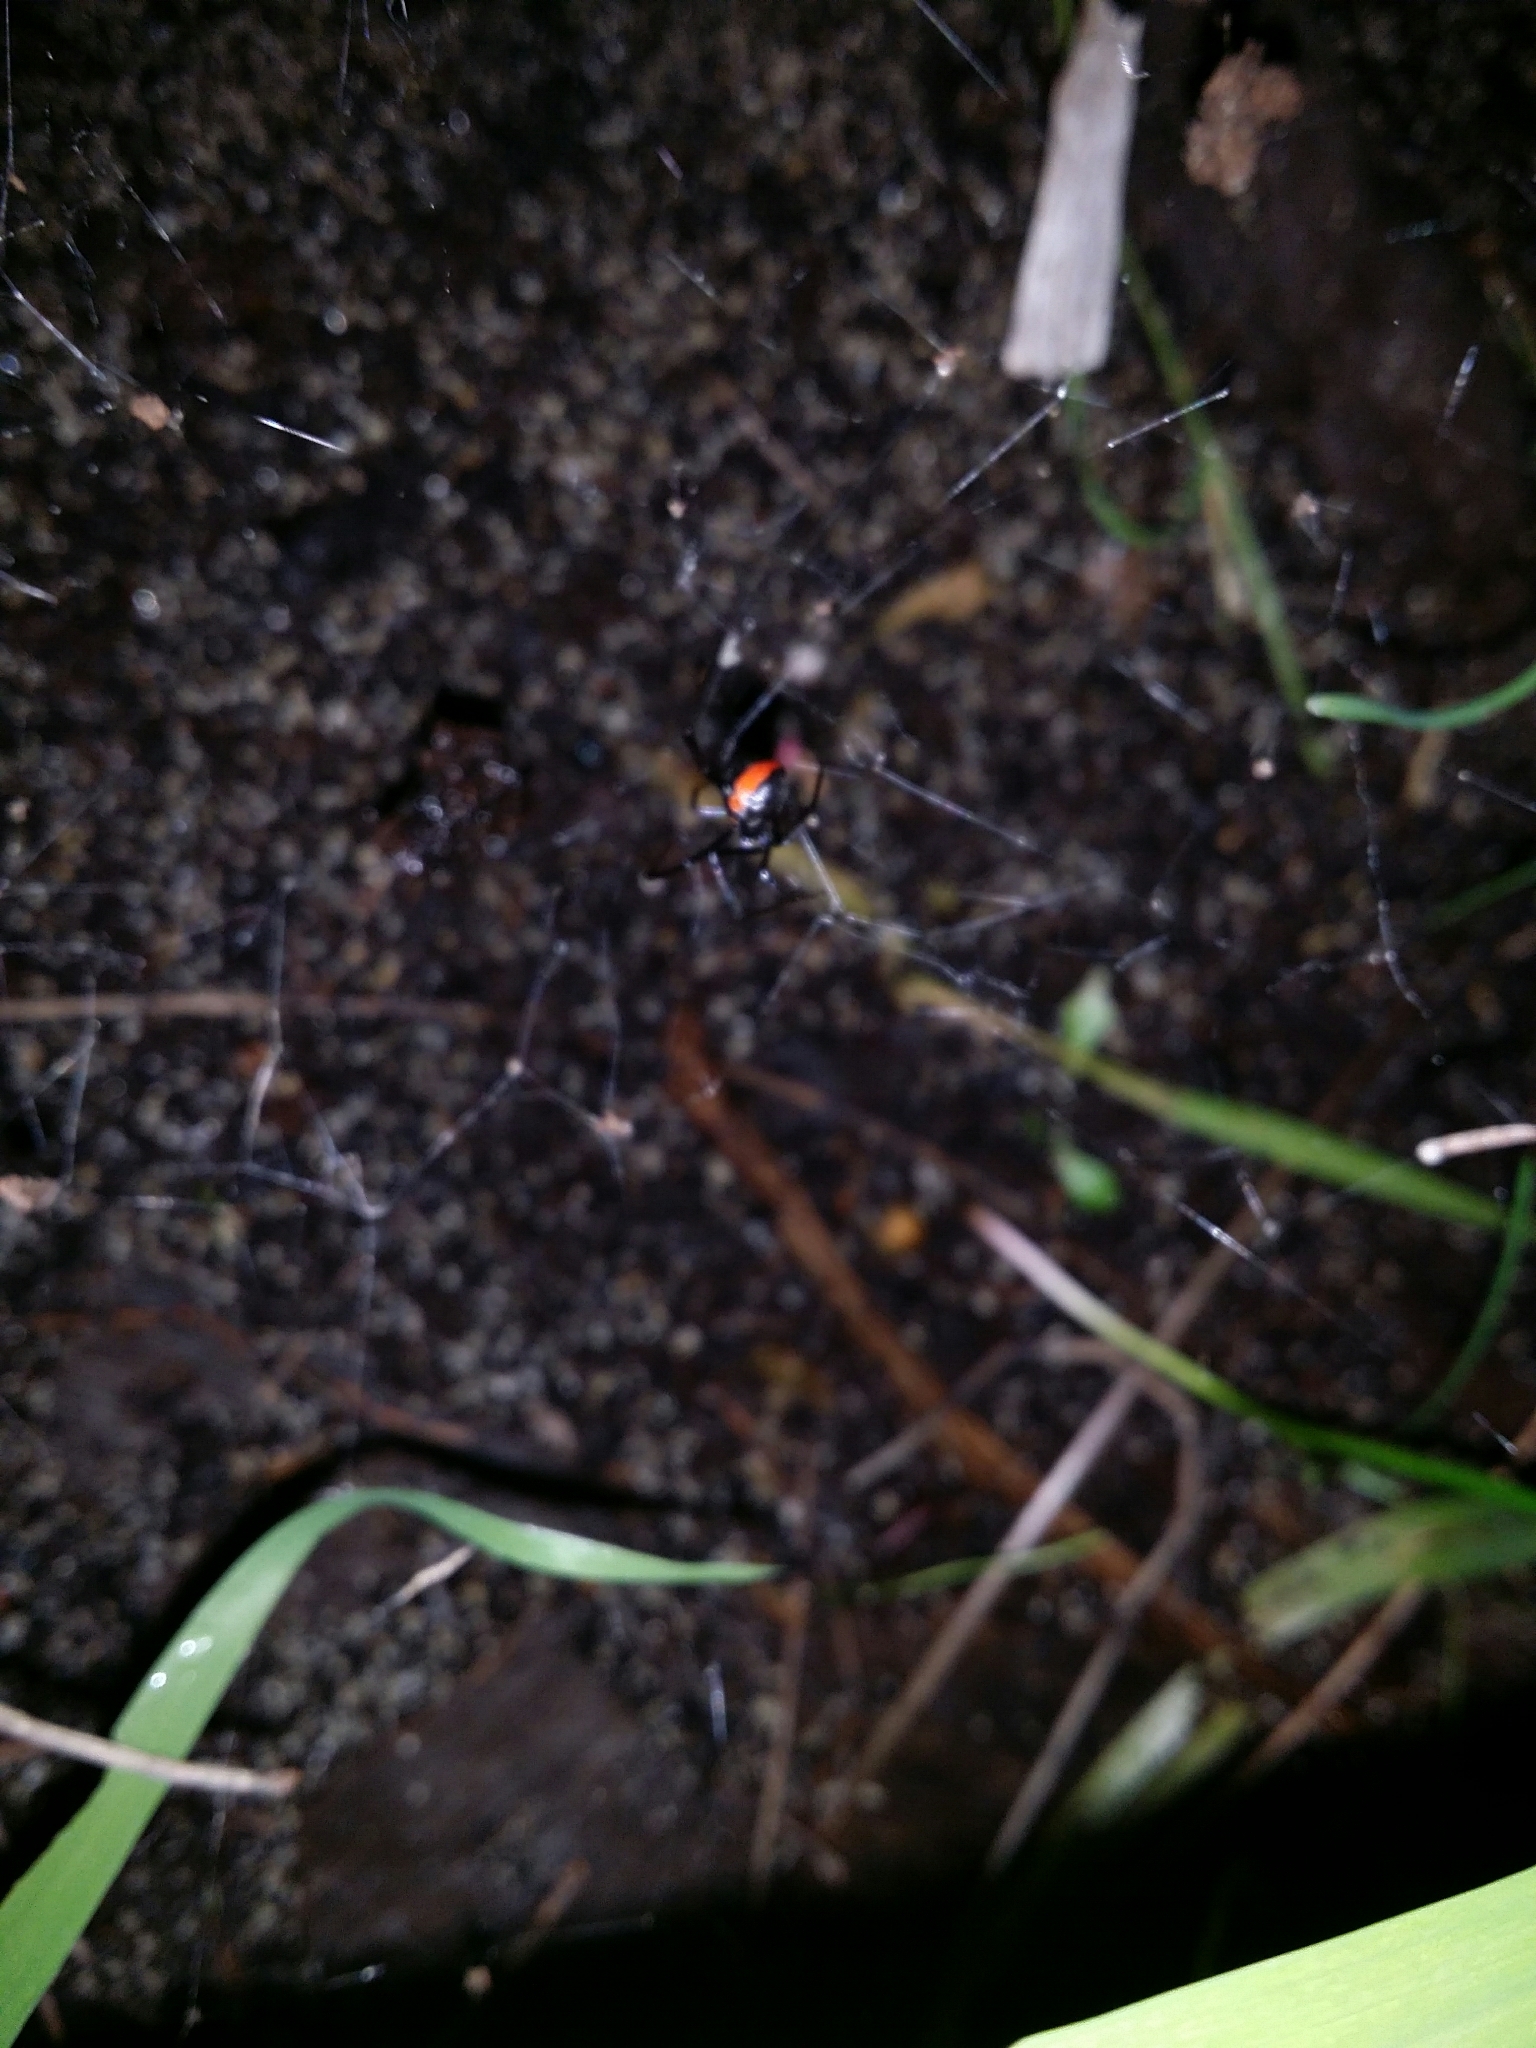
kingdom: Animalia
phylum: Arthropoda
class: Arachnida
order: Araneae
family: Theridiidae
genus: Latrodectus
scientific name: Latrodectus hasselti
